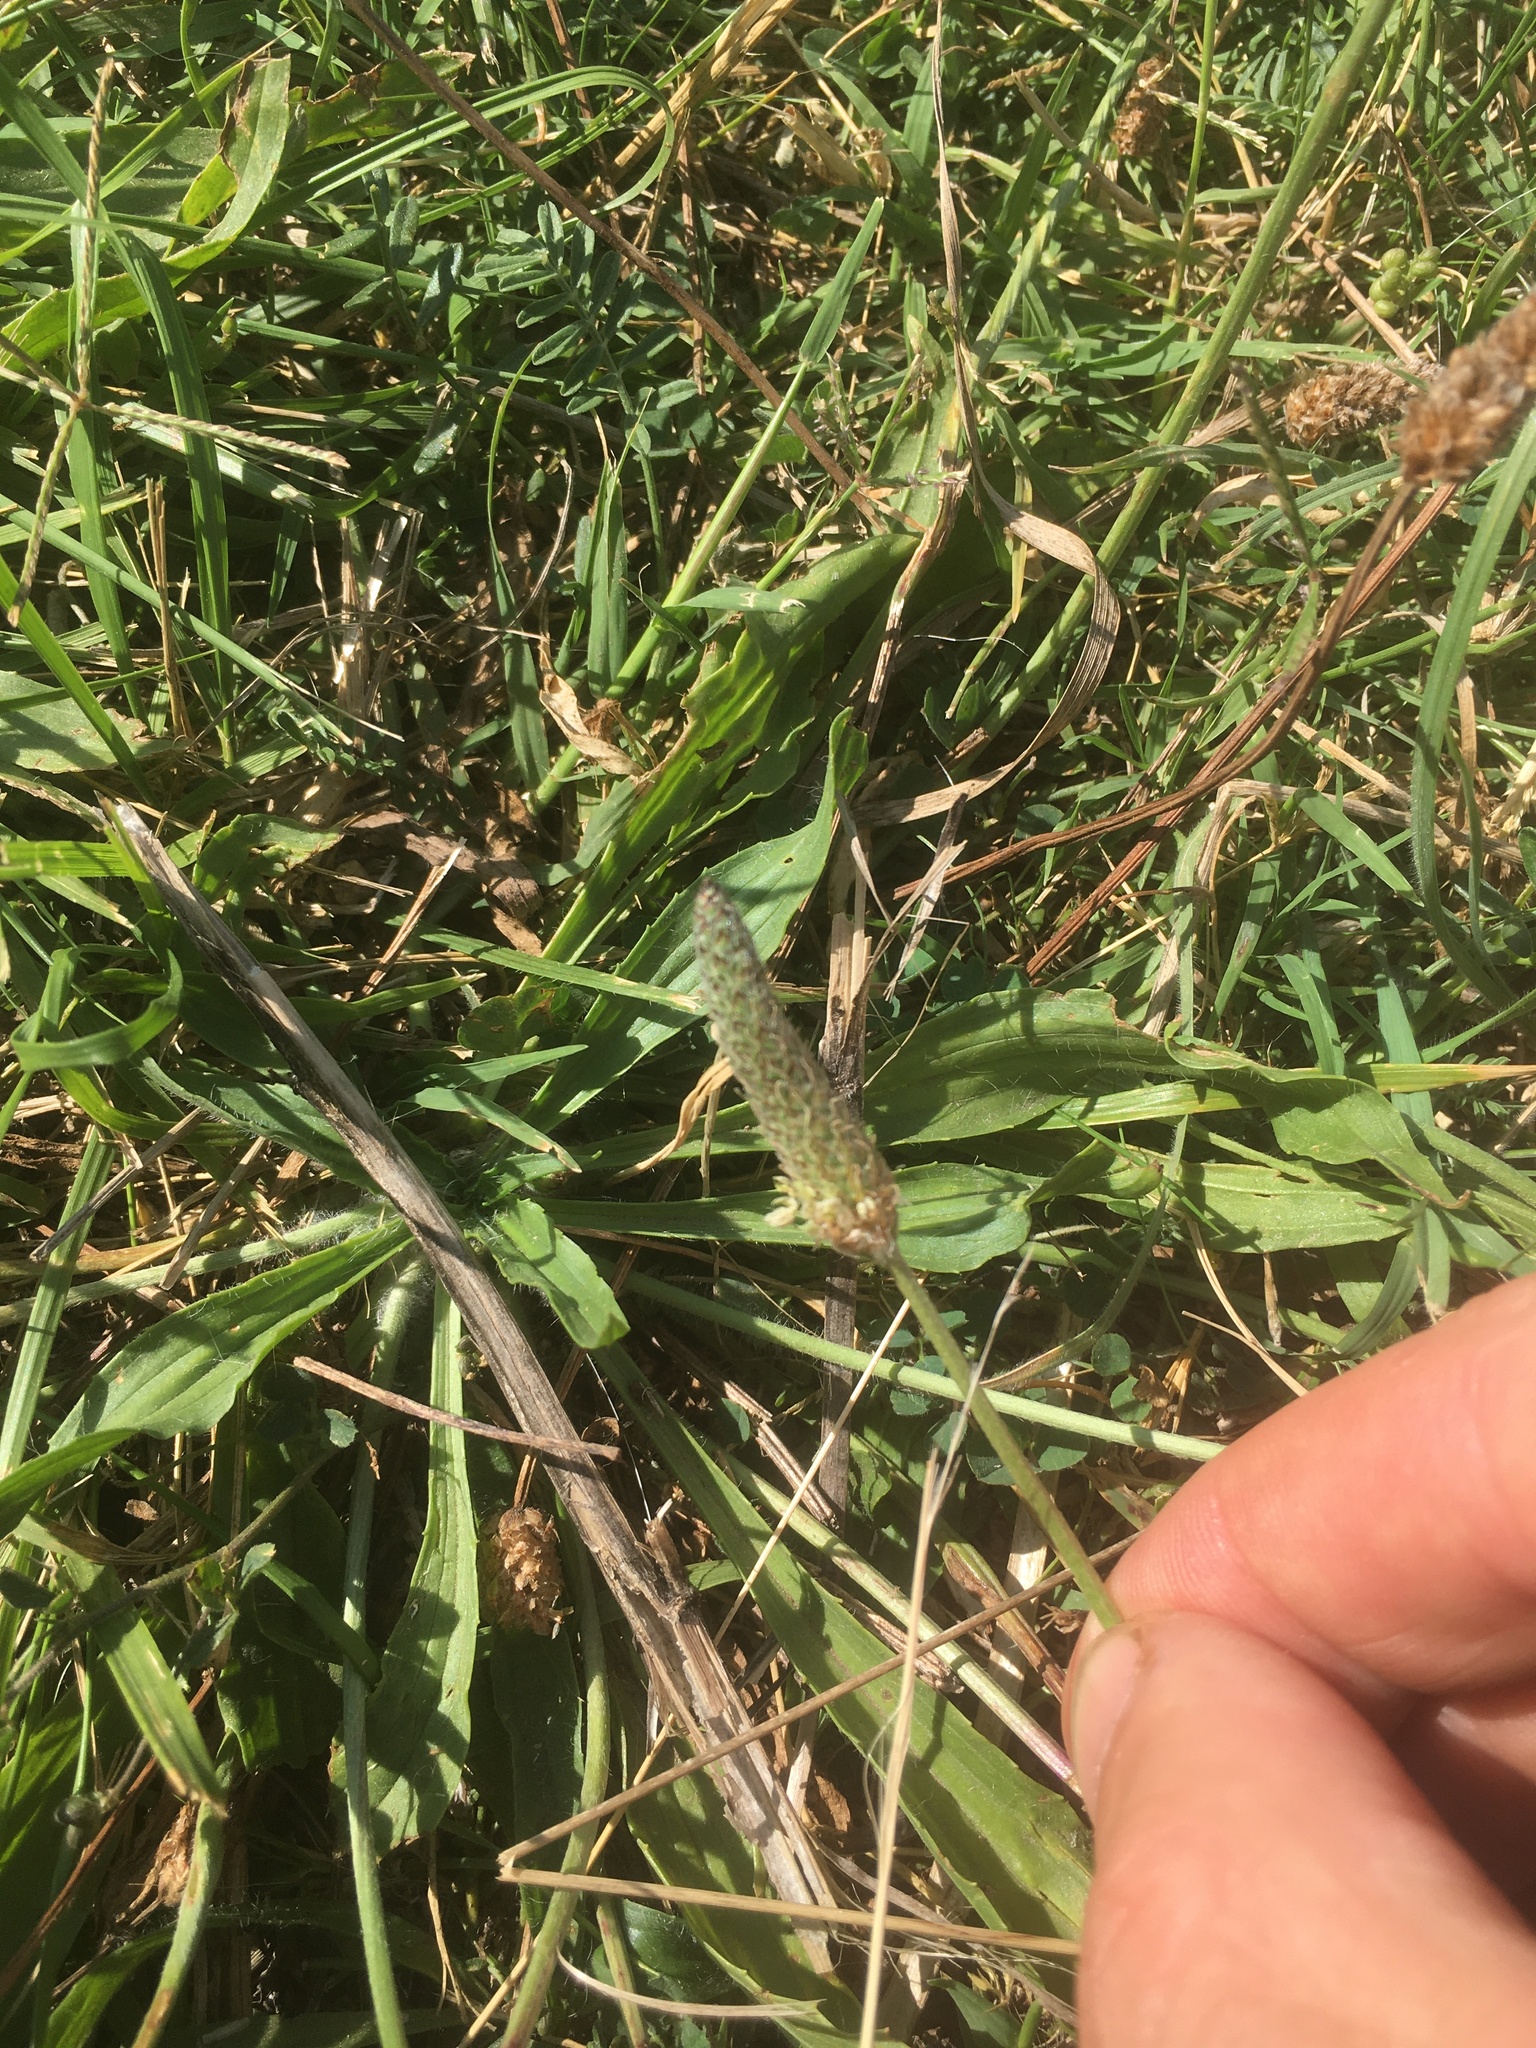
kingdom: Plantae
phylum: Tracheophyta
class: Magnoliopsida
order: Lamiales
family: Plantaginaceae
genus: Plantago
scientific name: Plantago lanceolata
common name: Ribwort plantain
